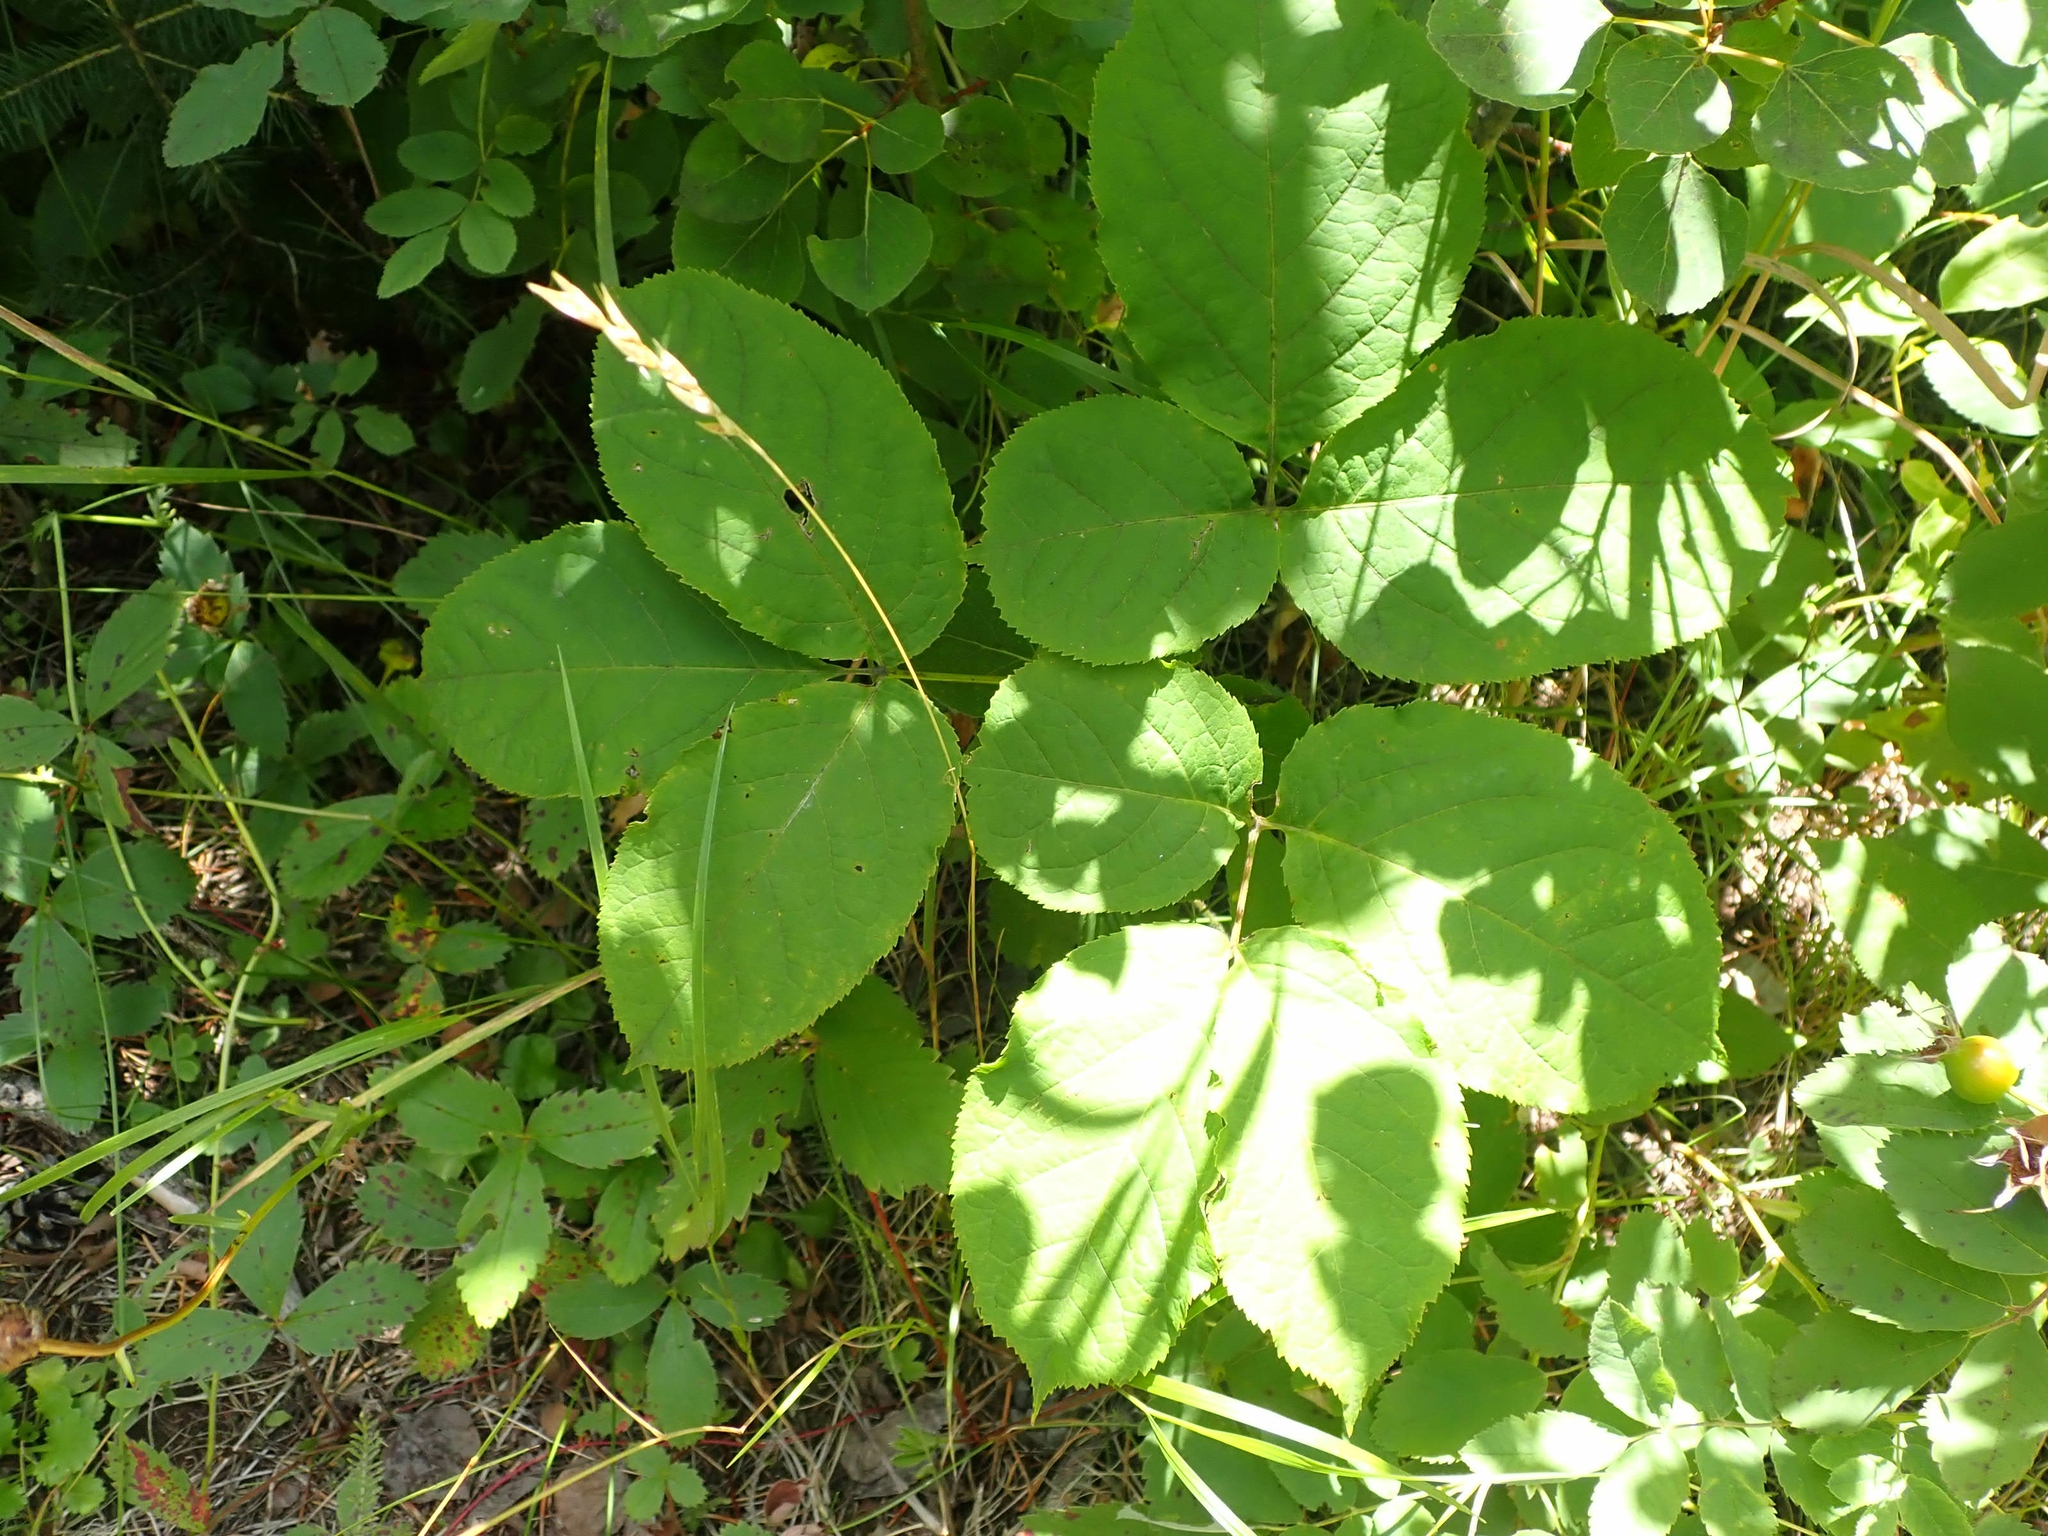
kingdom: Plantae
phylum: Tracheophyta
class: Magnoliopsida
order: Apiales
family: Araliaceae
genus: Aralia
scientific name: Aralia nudicaulis
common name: Wild sarsaparilla
